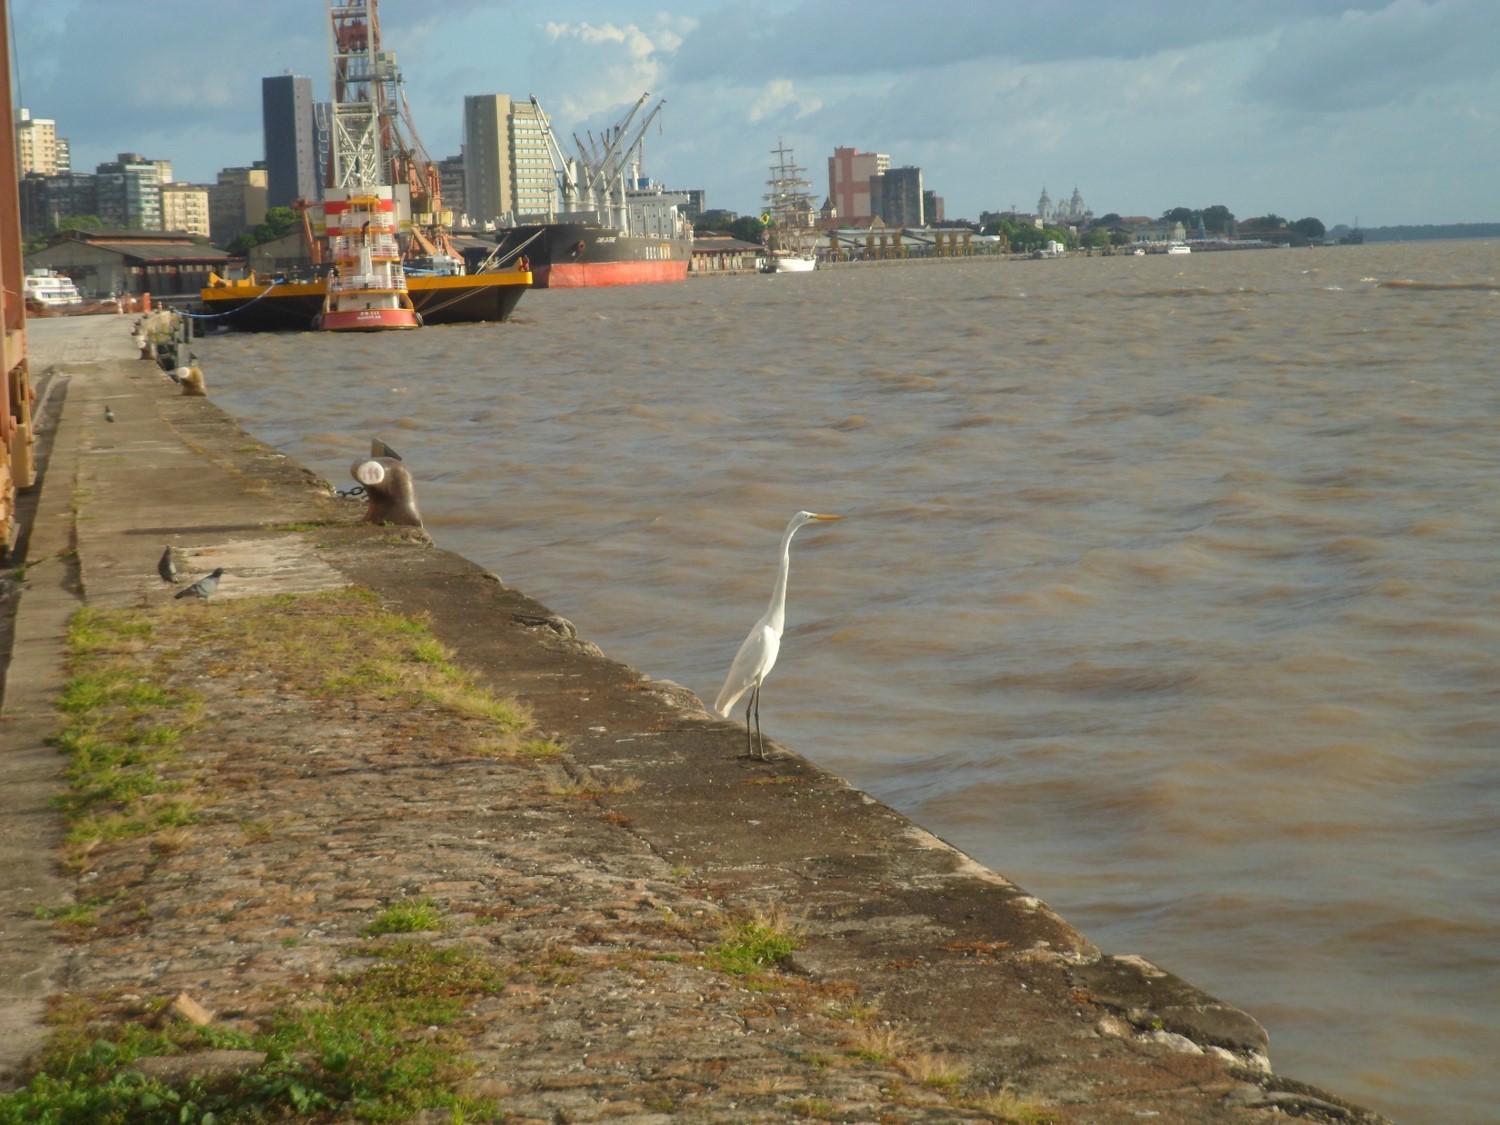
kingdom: Animalia
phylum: Chordata
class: Aves
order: Pelecaniformes
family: Ardeidae
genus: Ardea
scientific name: Ardea alba
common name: Great egret
